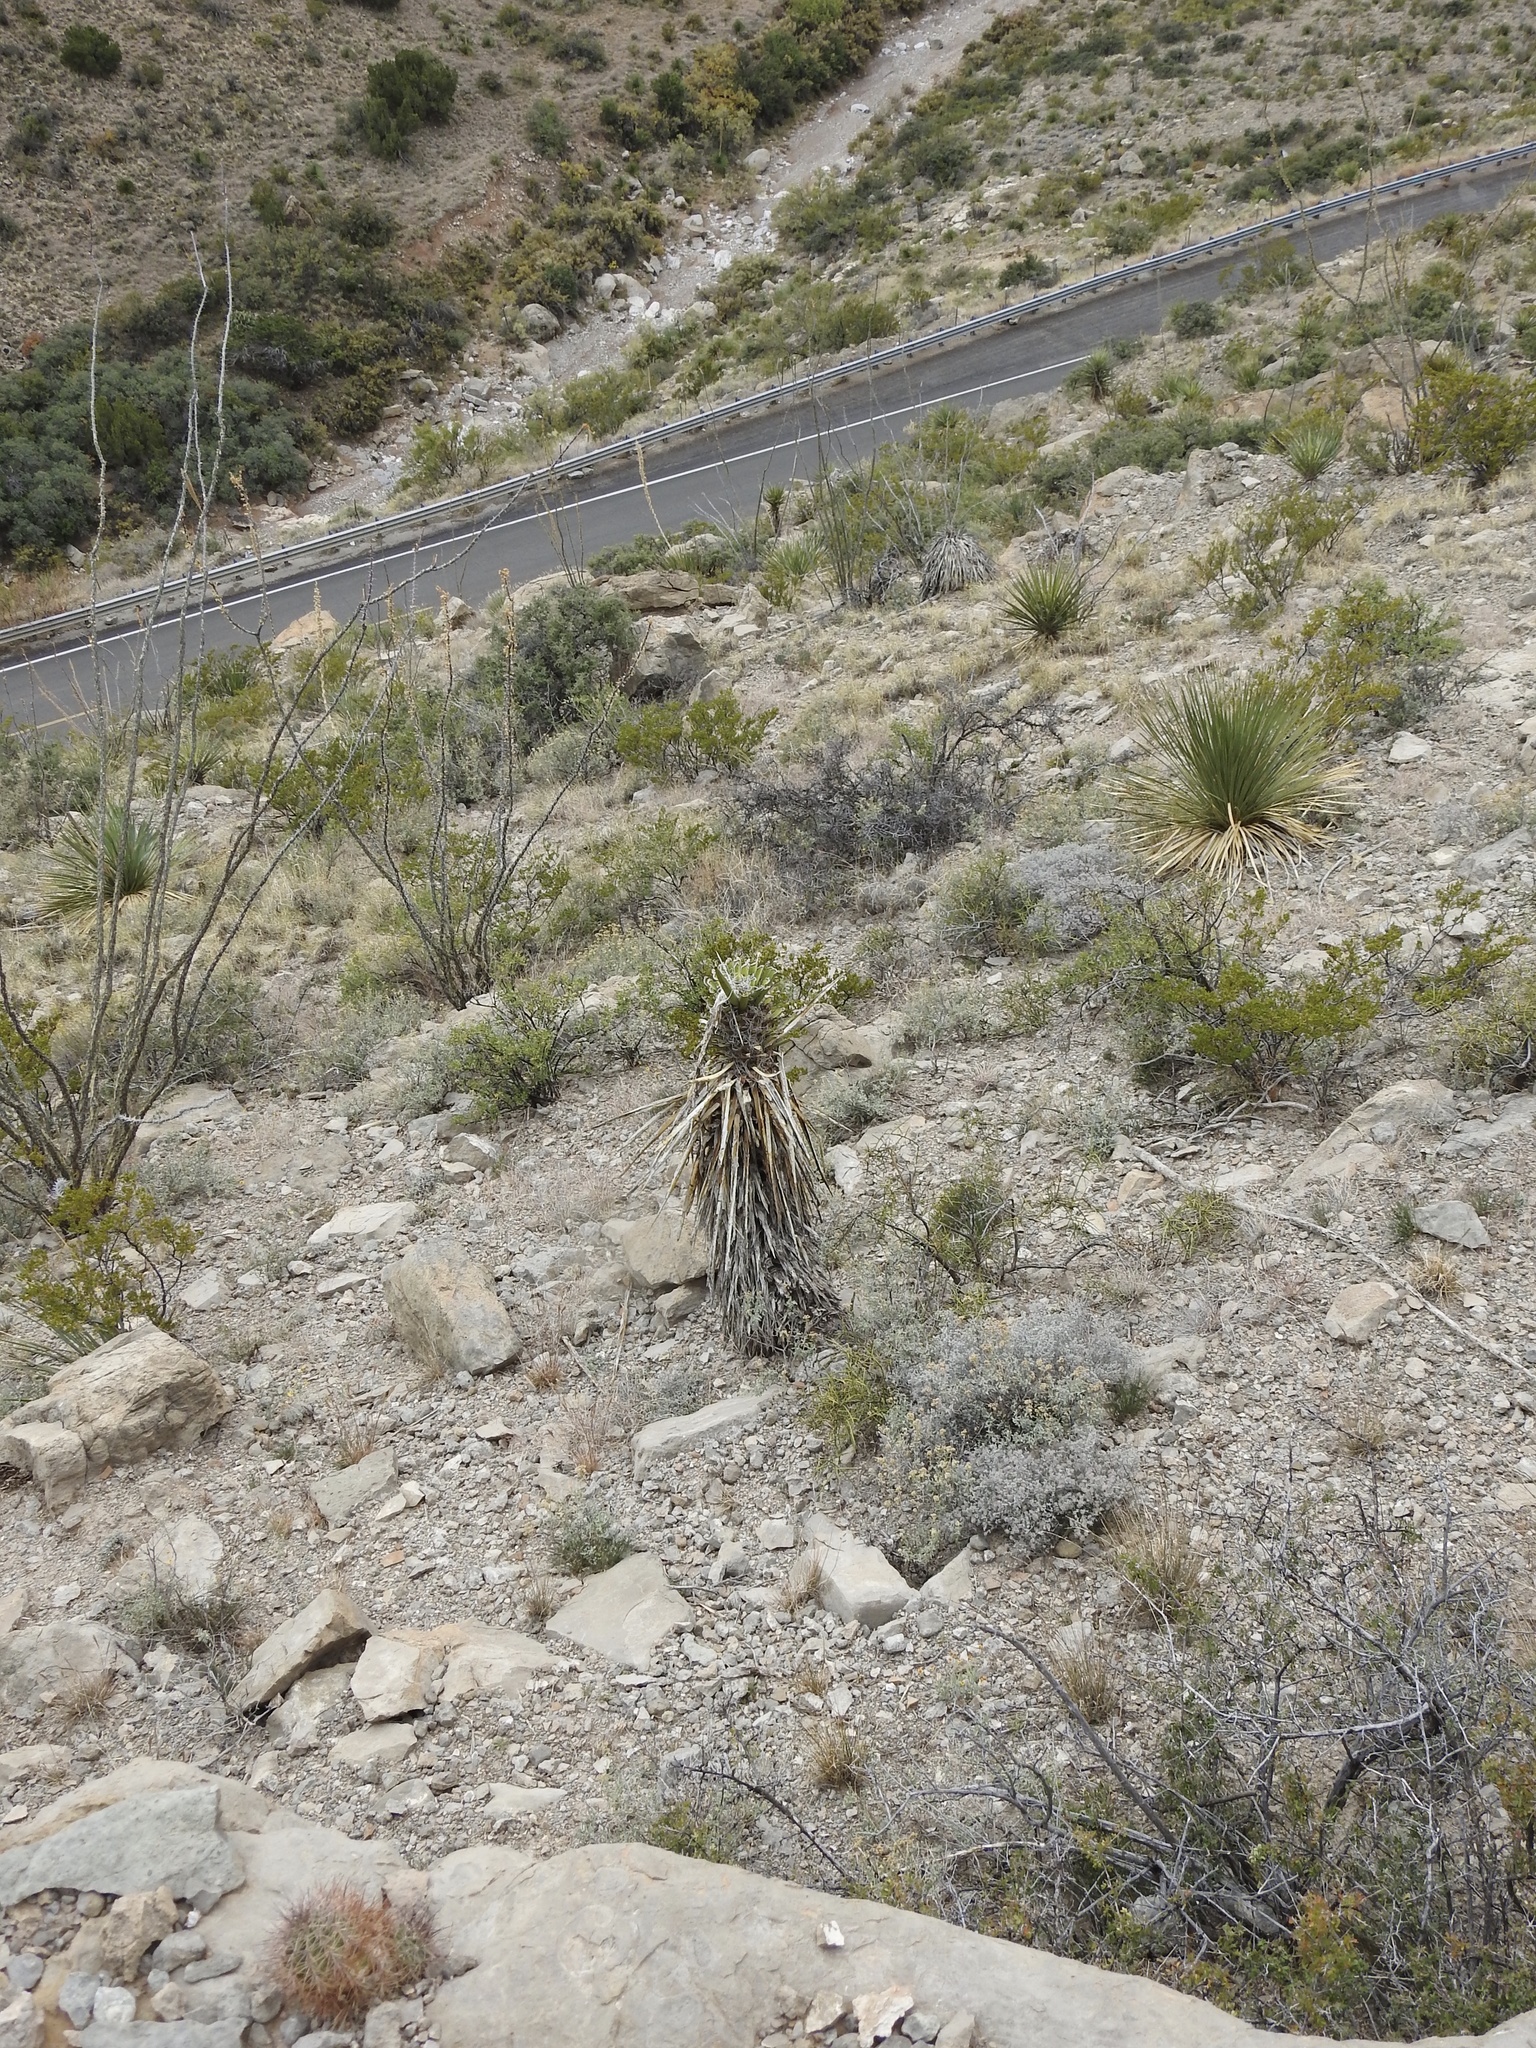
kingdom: Plantae
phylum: Tracheophyta
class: Liliopsida
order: Asparagales
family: Asparagaceae
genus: Yucca
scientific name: Yucca treculiana
